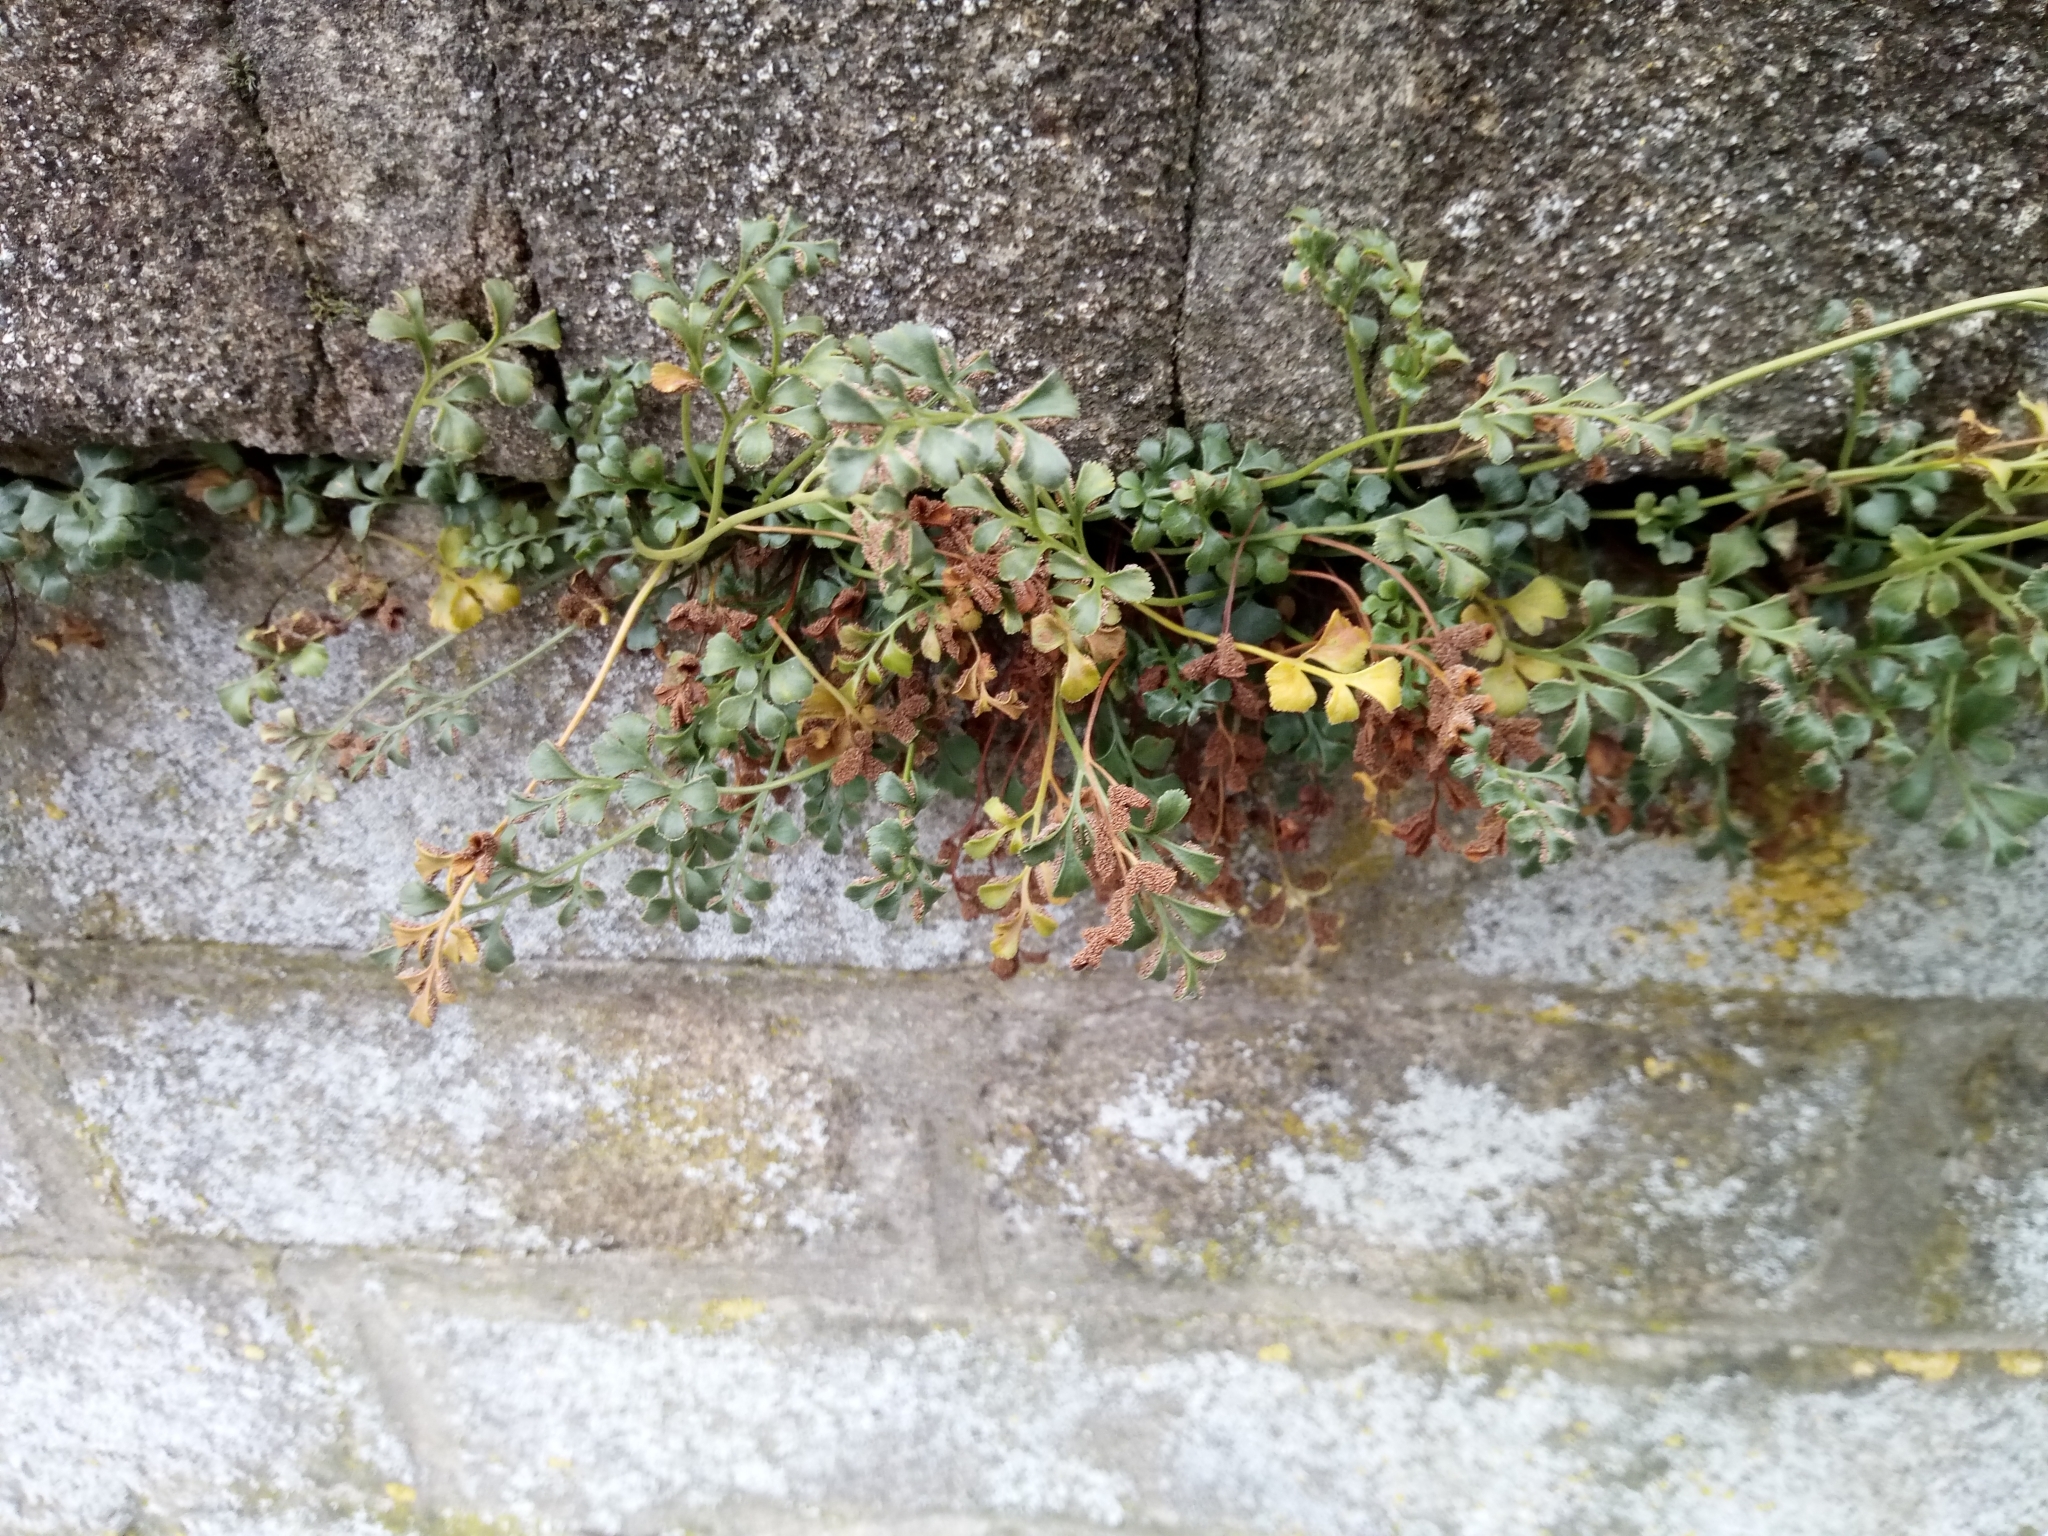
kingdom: Plantae
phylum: Tracheophyta
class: Polypodiopsida
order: Polypodiales
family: Aspleniaceae
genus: Asplenium
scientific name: Asplenium ruta-muraria
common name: Wall-rue
